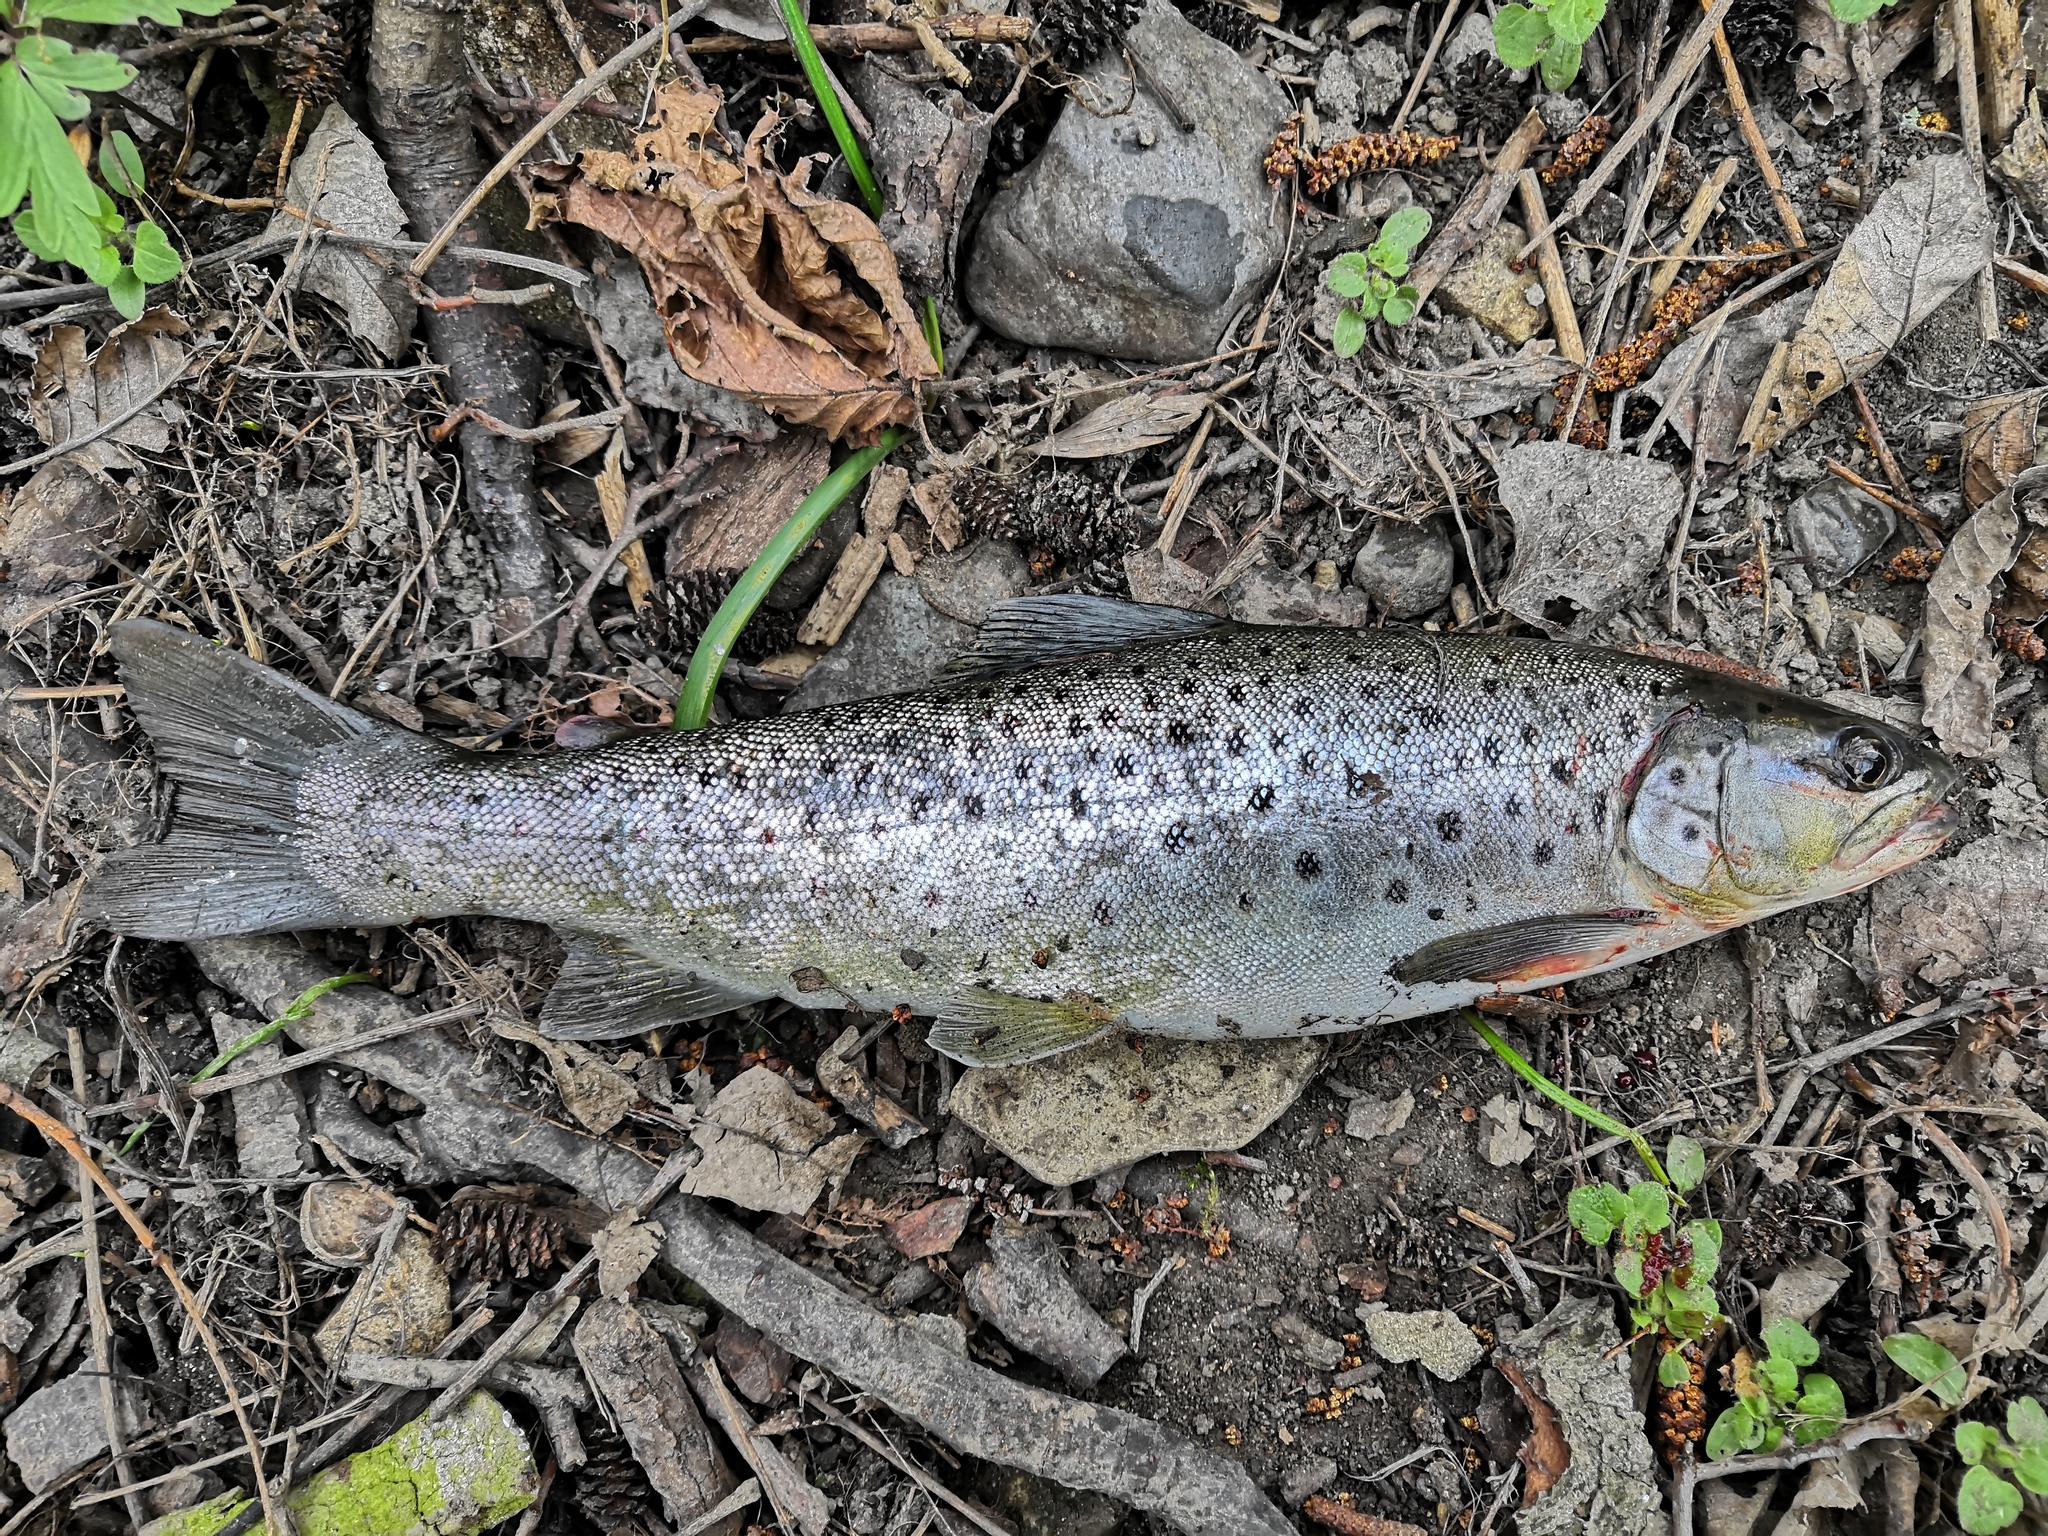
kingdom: Animalia
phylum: Chordata
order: Salmoniformes
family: Salmonidae
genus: Salmo
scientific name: Salmo trutta
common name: Brown trout
